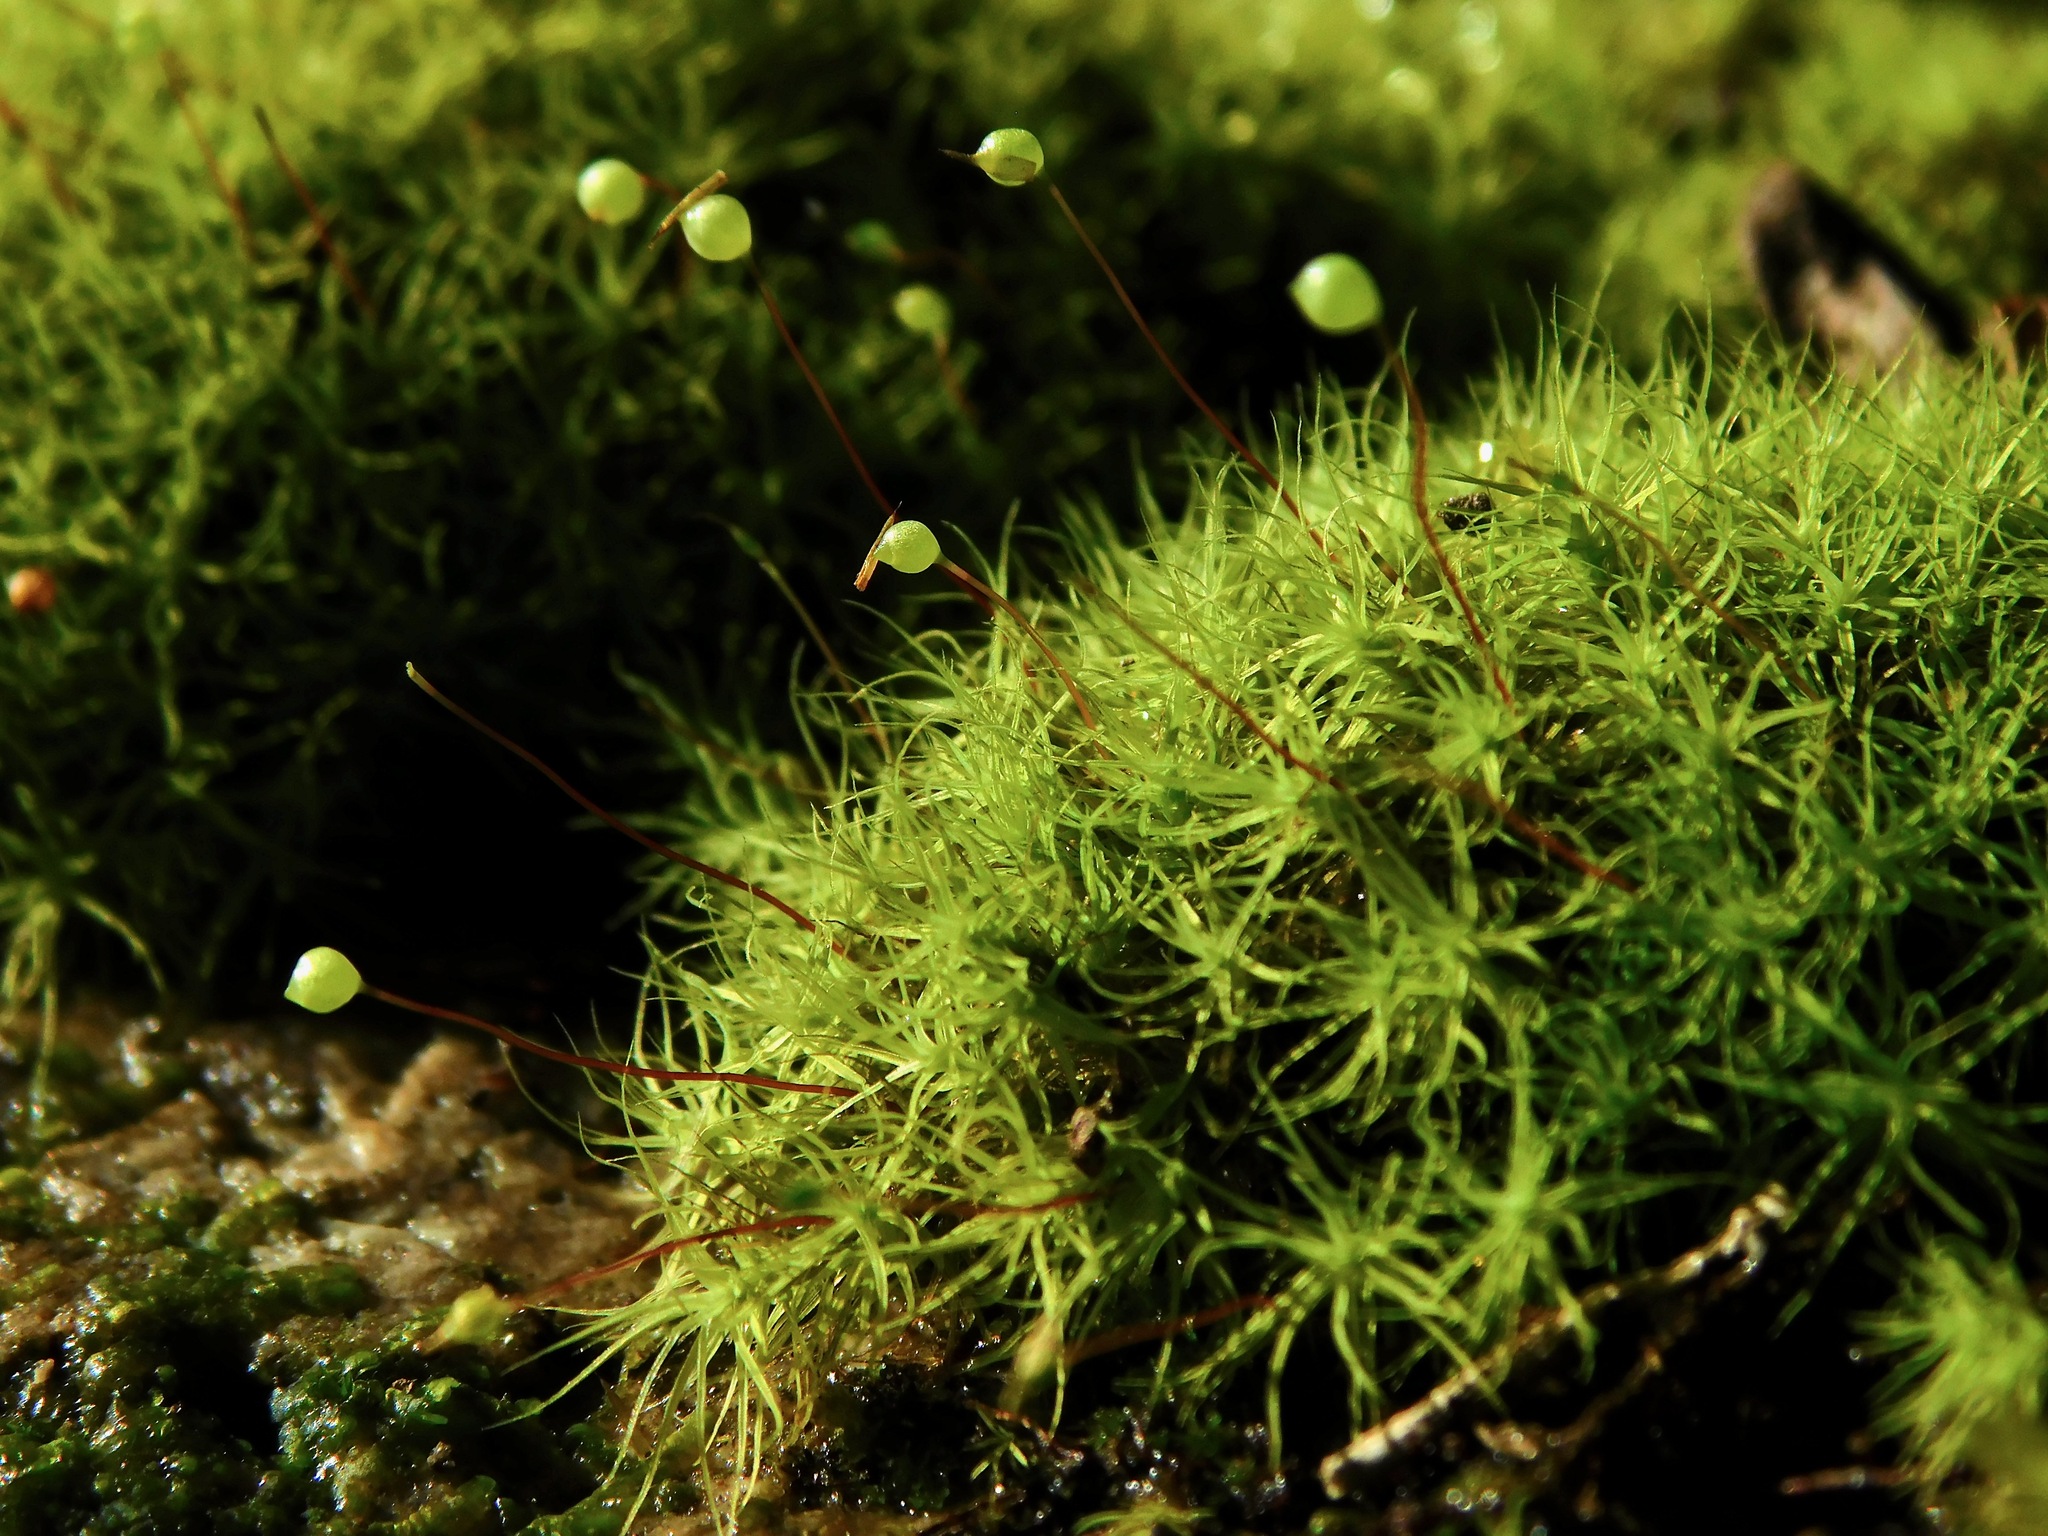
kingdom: Plantae
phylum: Bryophyta
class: Bryopsida
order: Bartramiales
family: Bartramiaceae
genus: Bartramia
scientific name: Bartramia ithyphylla
